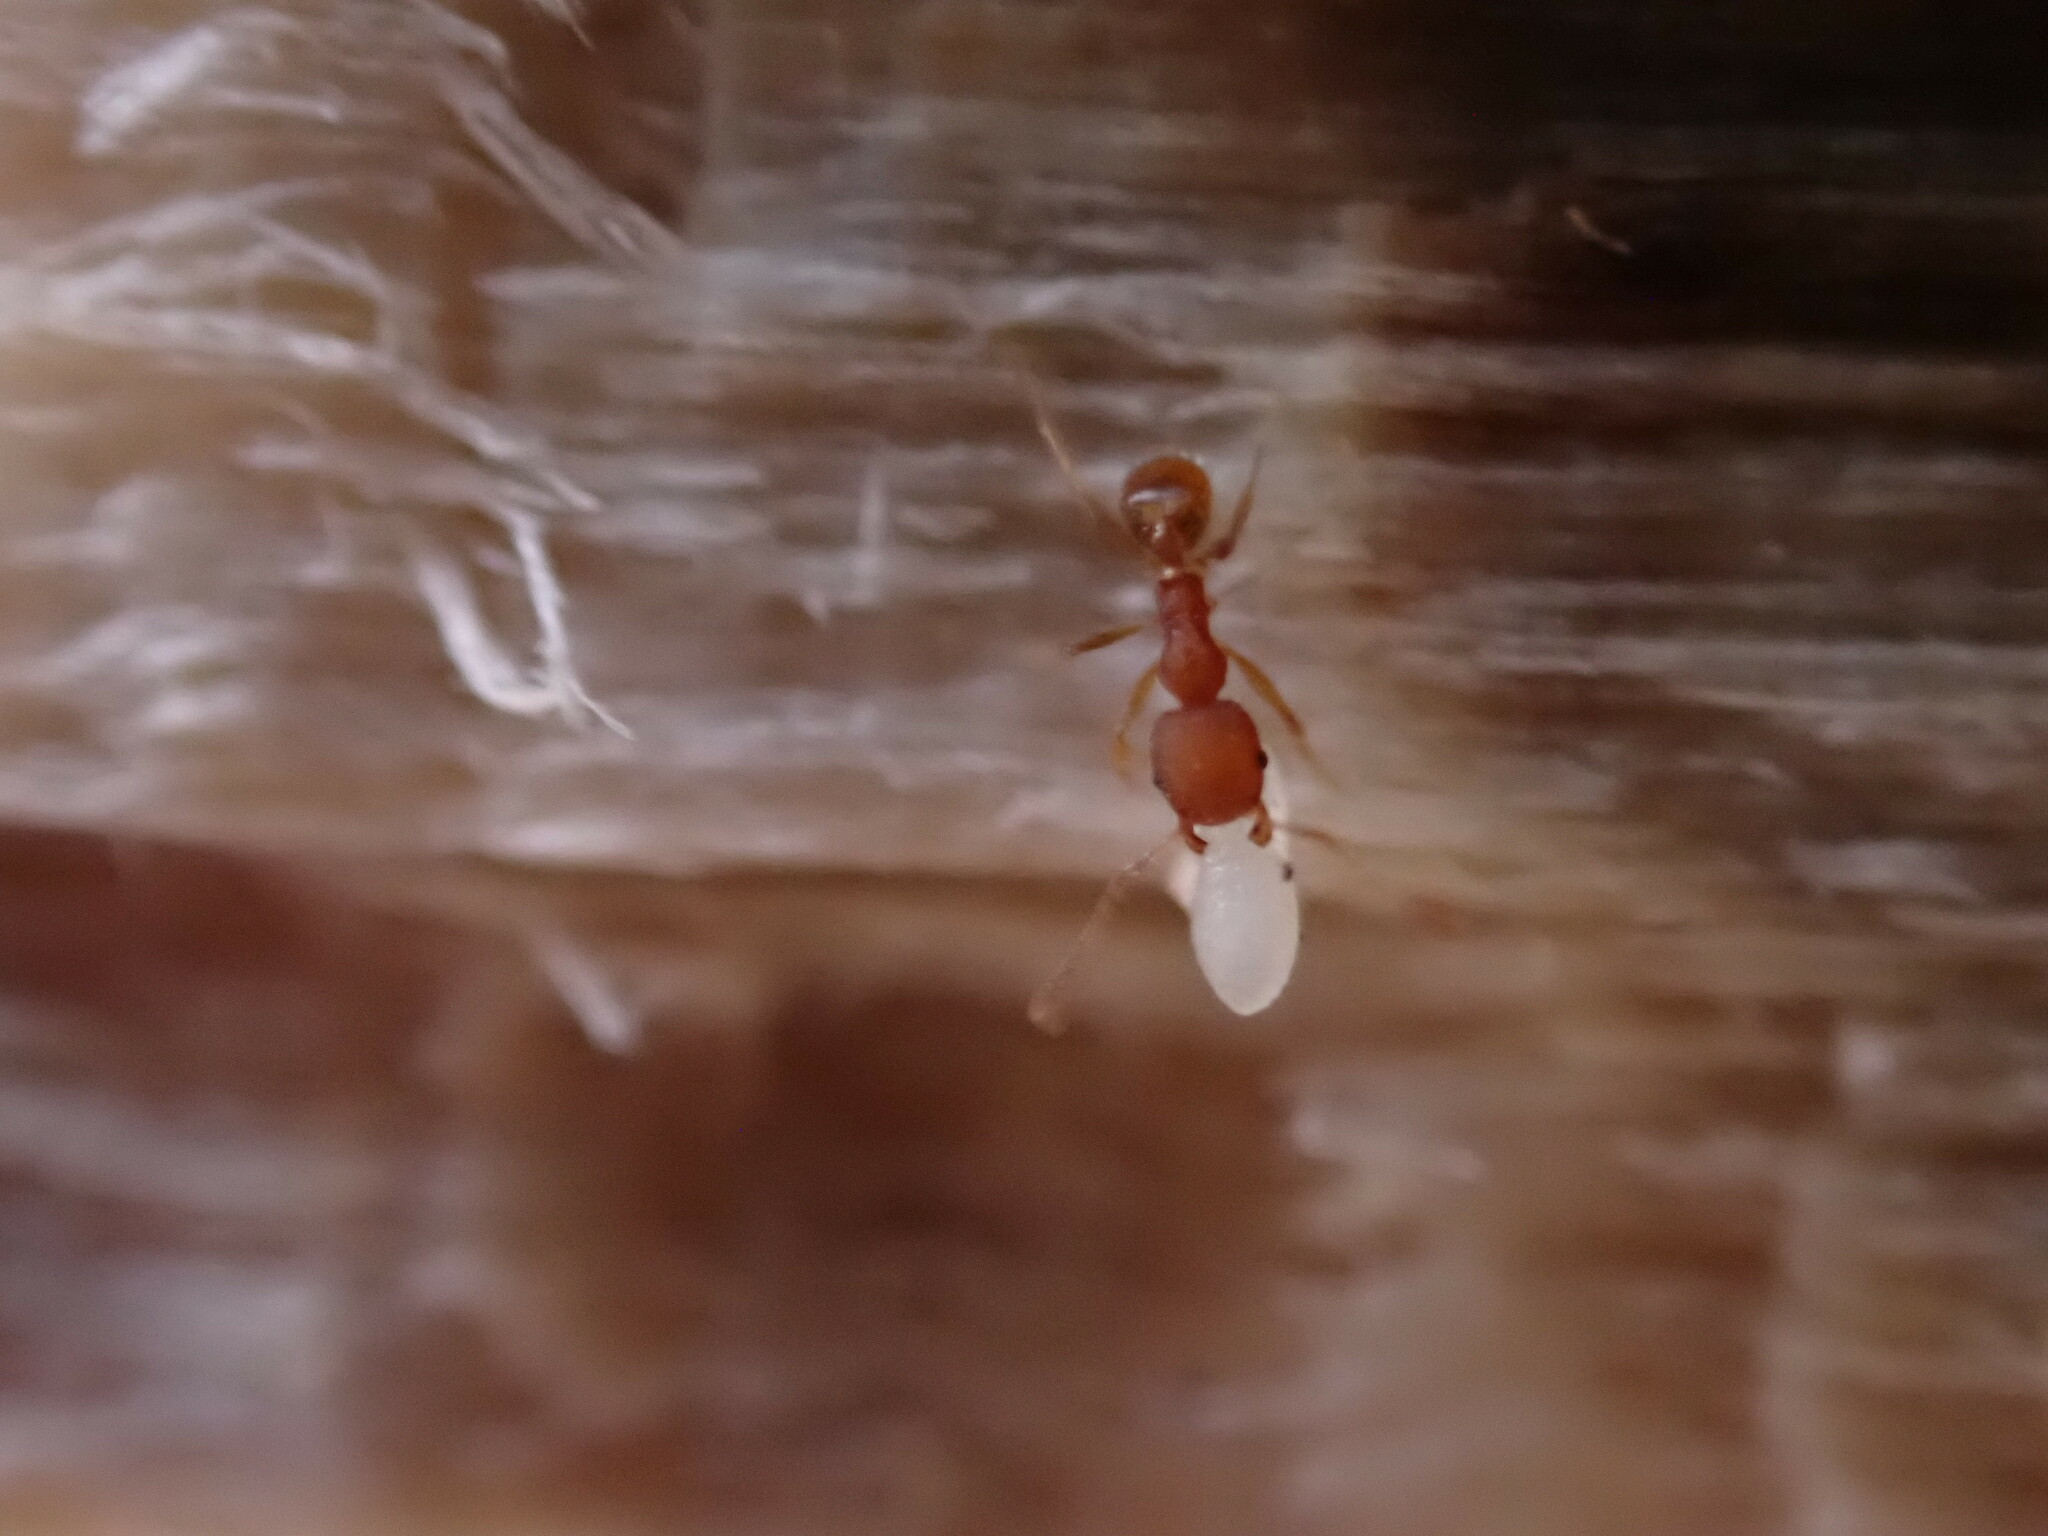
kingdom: Animalia
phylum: Arthropoda
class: Insecta
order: Hymenoptera
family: Formicidae
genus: Pheidole
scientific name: Pheidole navigans
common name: Navigating big-headed ant
